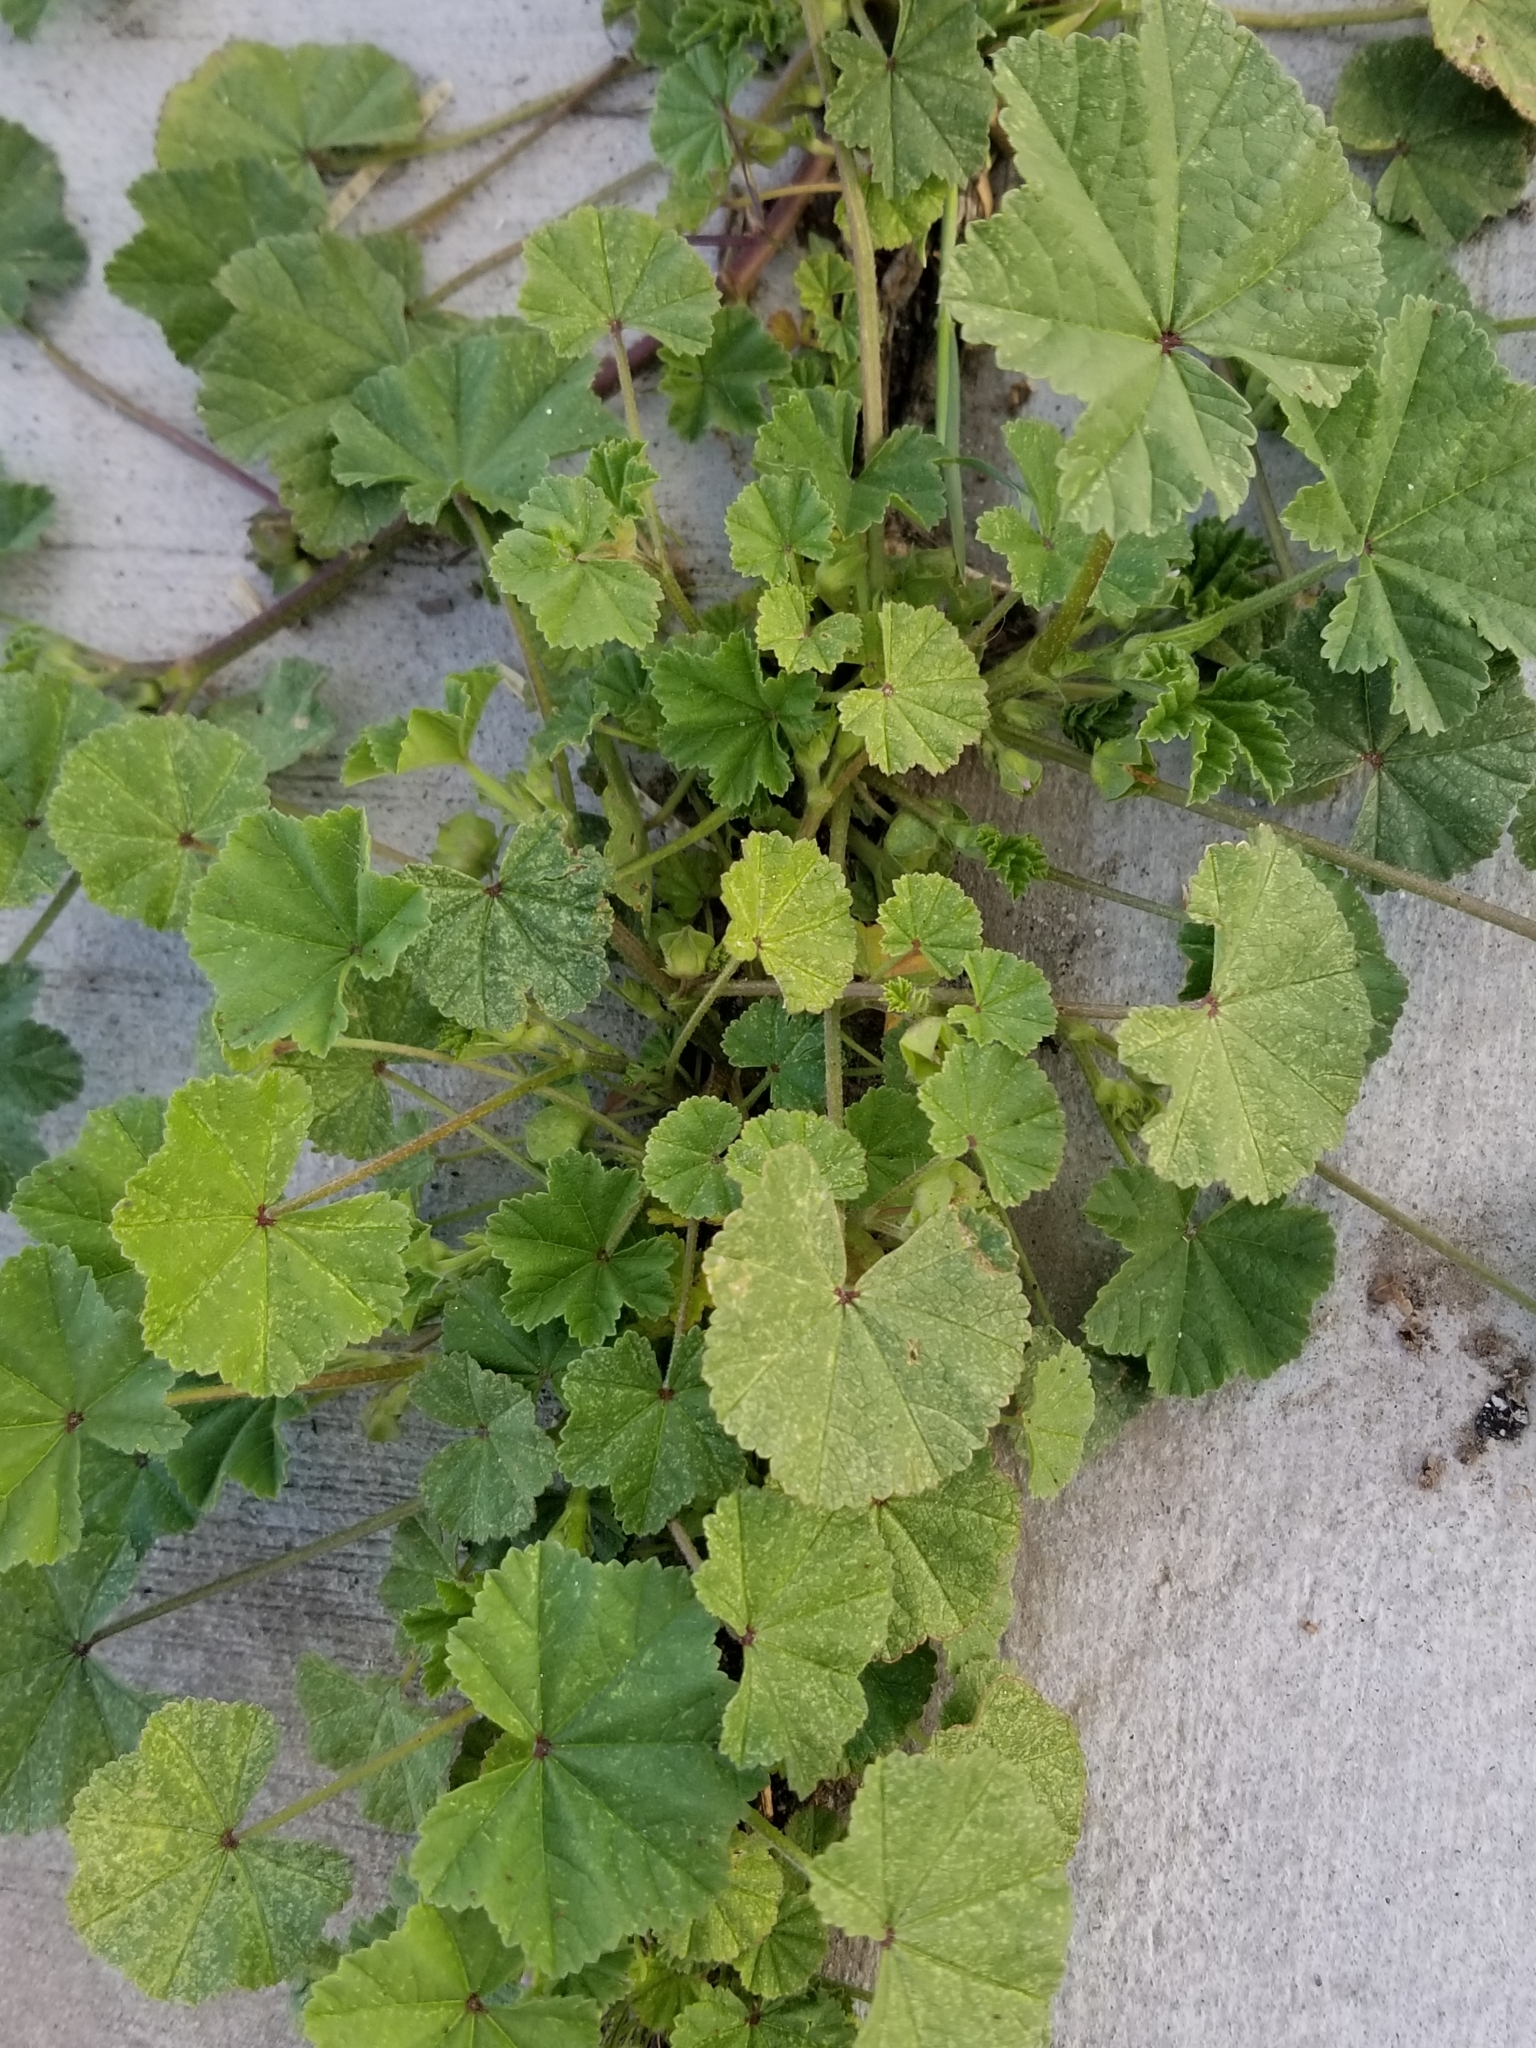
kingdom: Plantae
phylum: Tracheophyta
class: Magnoliopsida
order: Malvales
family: Malvaceae
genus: Malva
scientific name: Malva parviflora
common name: Least mallow
